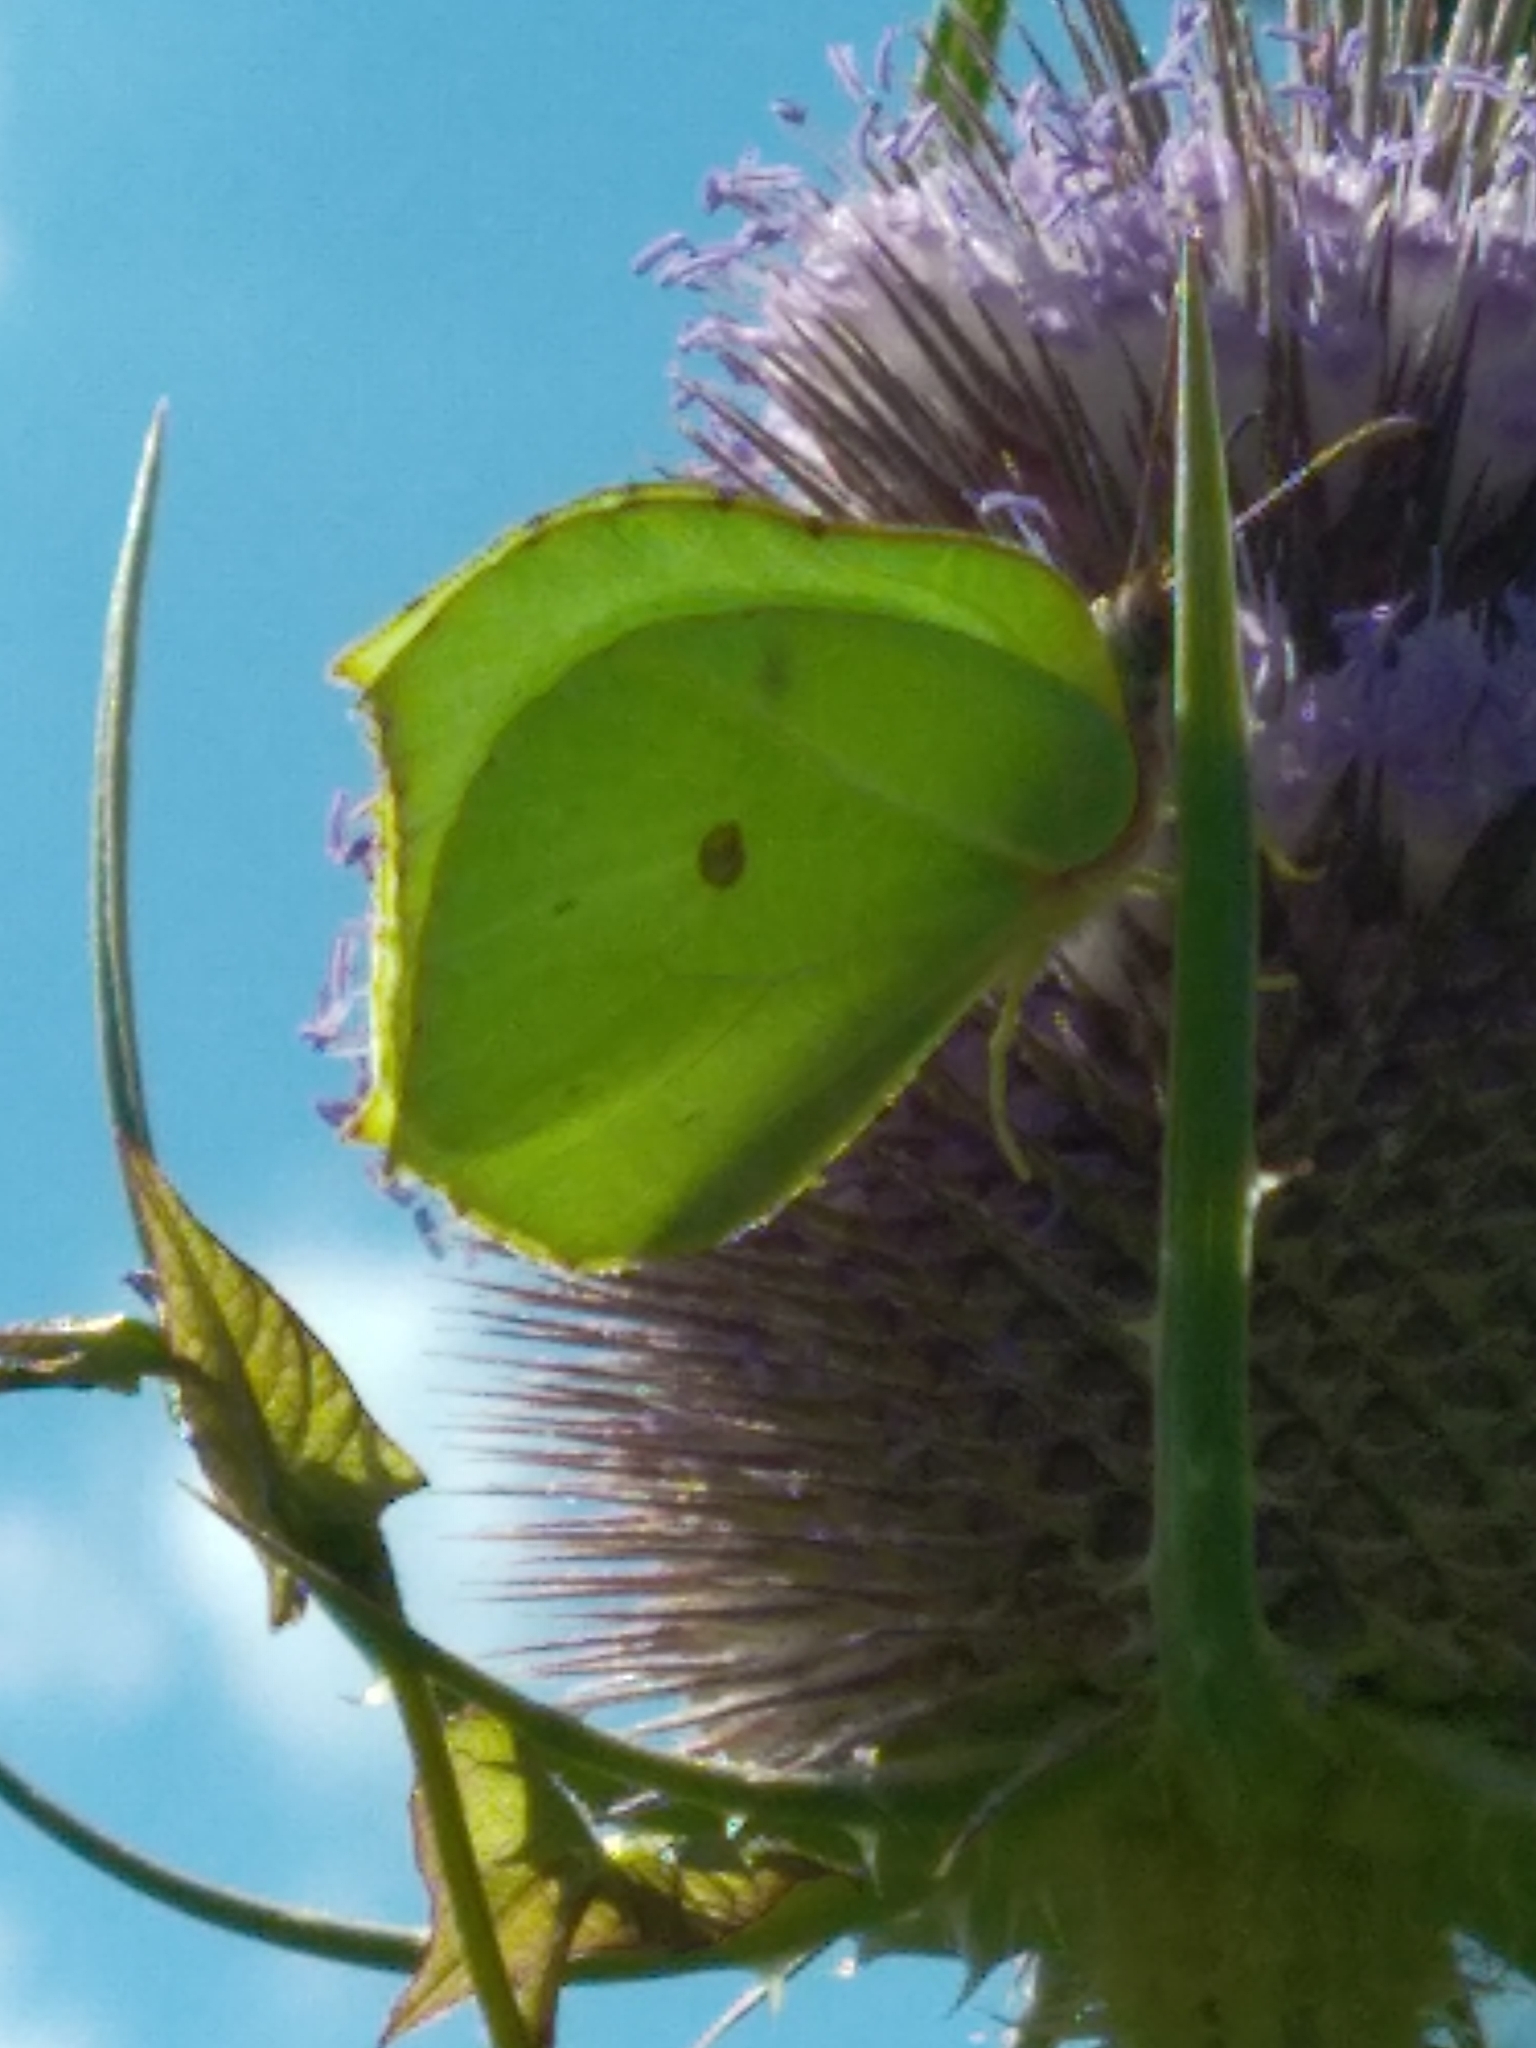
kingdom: Animalia
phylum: Arthropoda
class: Insecta
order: Lepidoptera
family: Pieridae
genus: Gonepteryx
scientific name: Gonepteryx rhamni
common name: Brimstone
